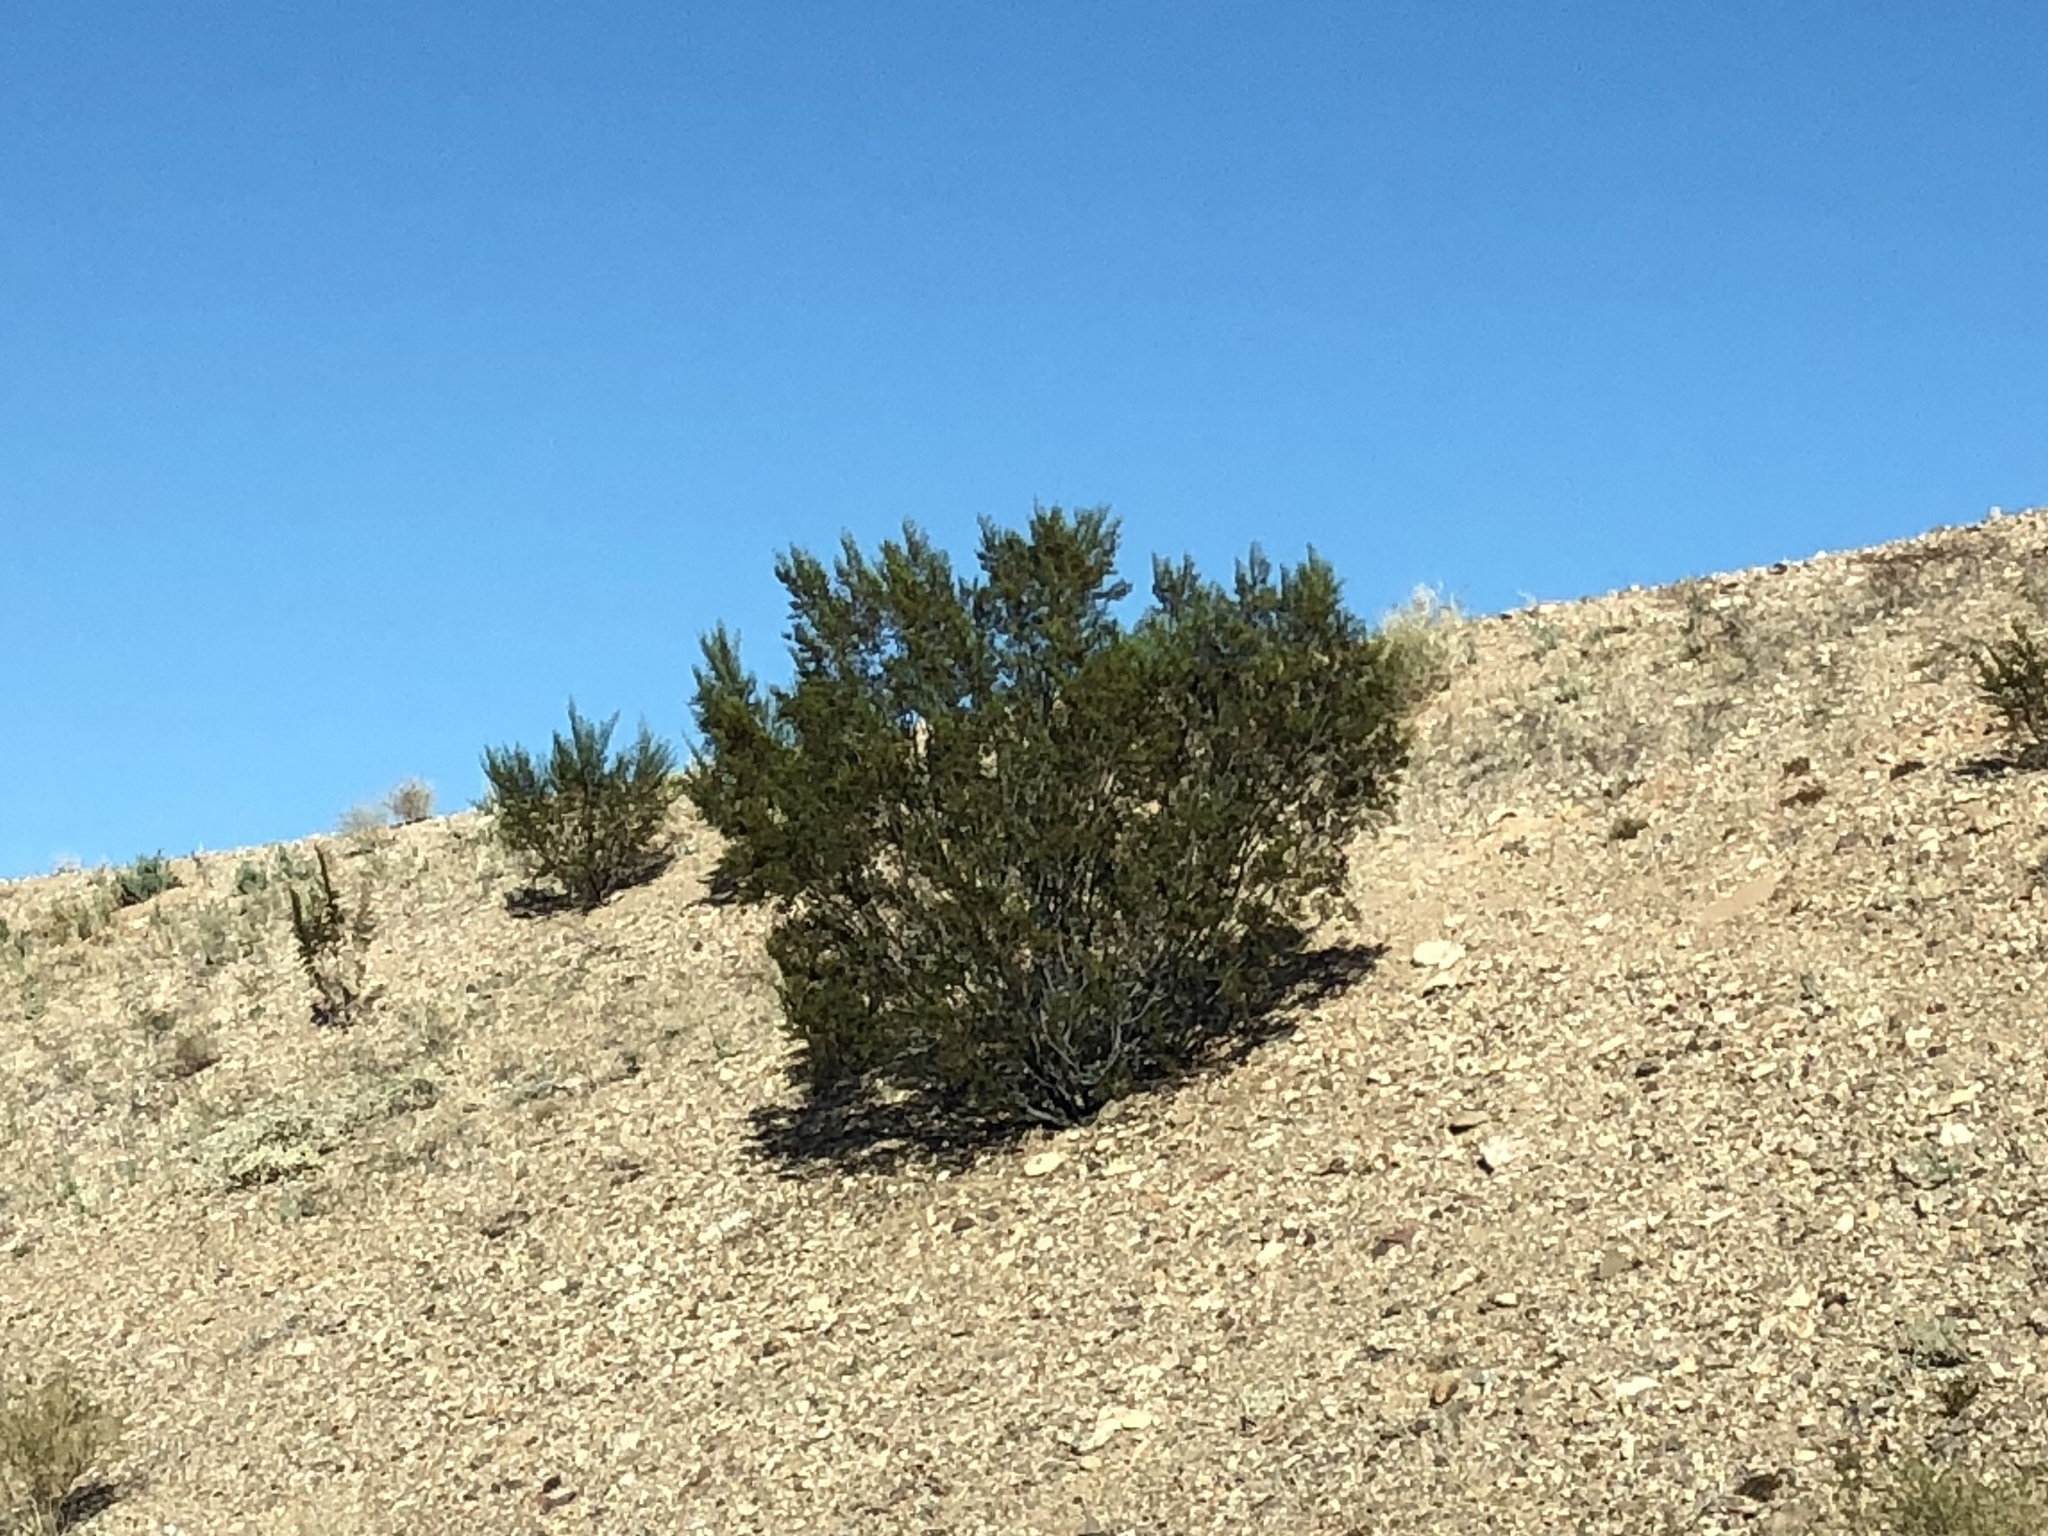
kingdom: Plantae
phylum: Tracheophyta
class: Magnoliopsida
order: Zygophyllales
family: Zygophyllaceae
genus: Larrea
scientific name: Larrea tridentata
